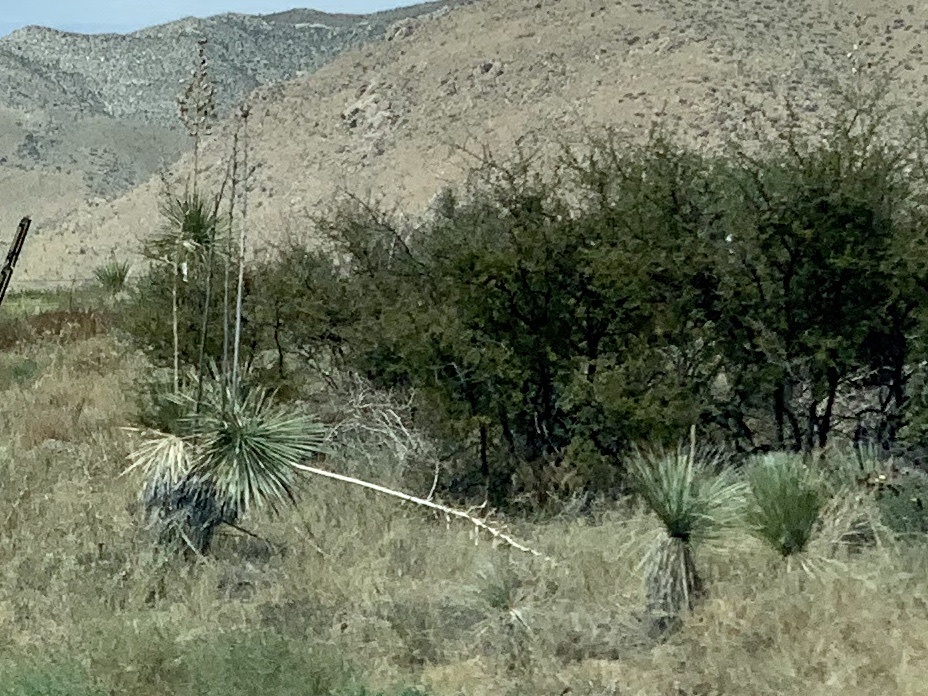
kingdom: Plantae
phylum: Tracheophyta
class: Liliopsida
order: Asparagales
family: Asparagaceae
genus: Yucca
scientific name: Yucca elata
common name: Palmella
